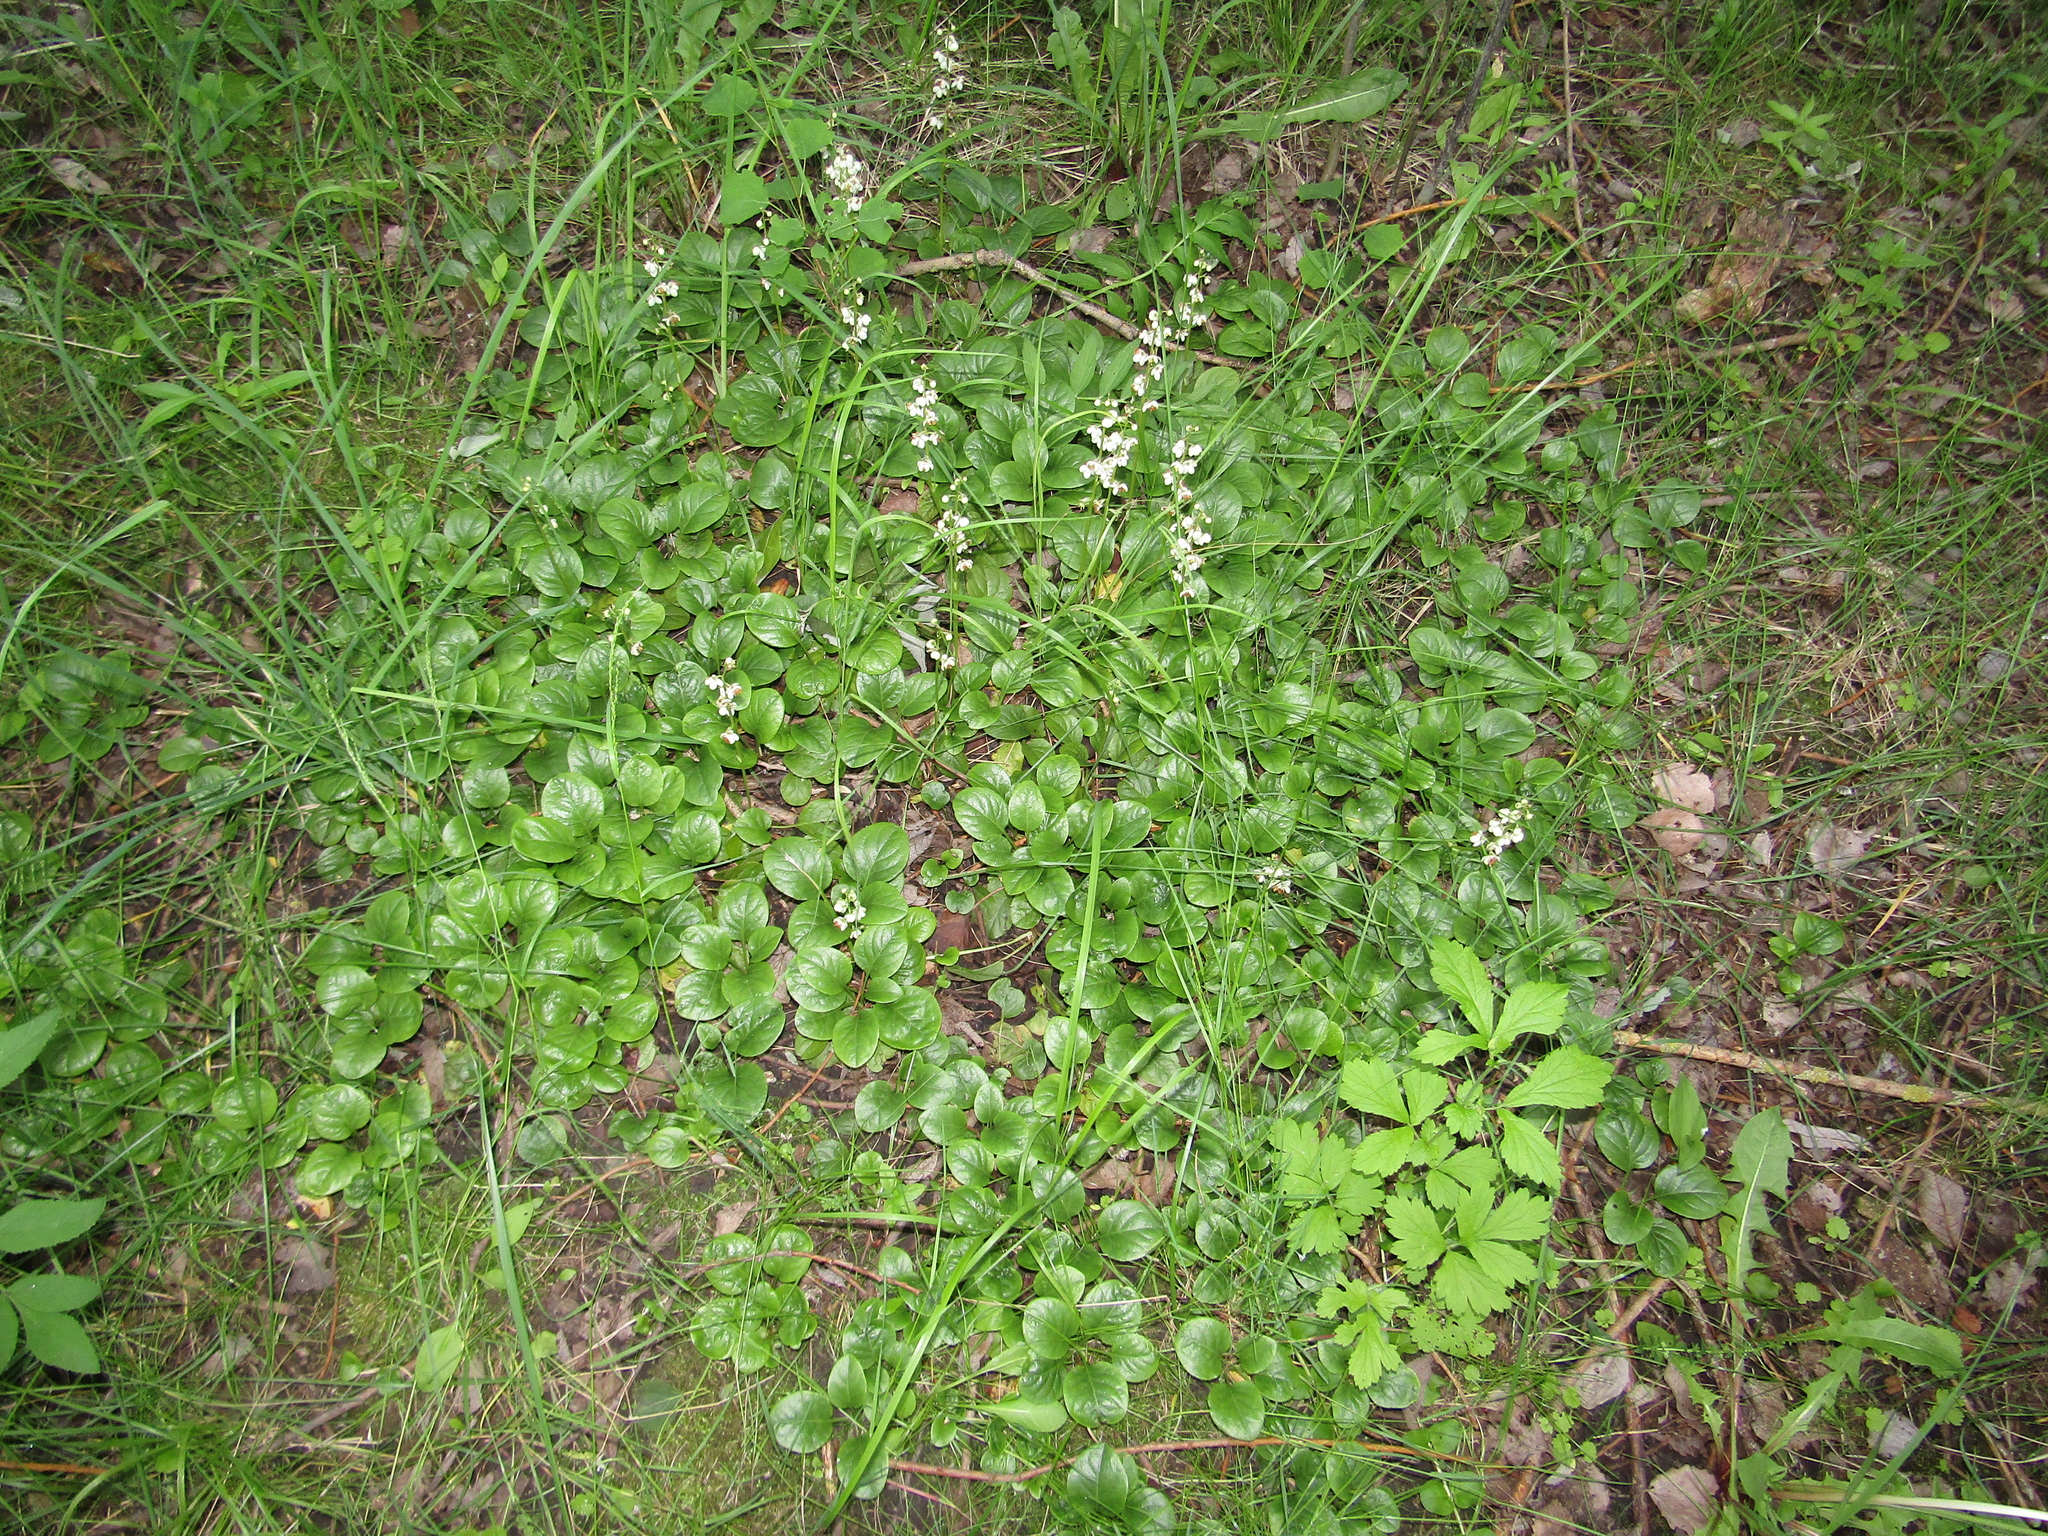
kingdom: Plantae
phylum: Tracheophyta
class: Magnoliopsida
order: Ericales
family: Ericaceae
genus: Pyrola
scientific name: Pyrola rotundifolia
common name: Round-leaved wintergreen
